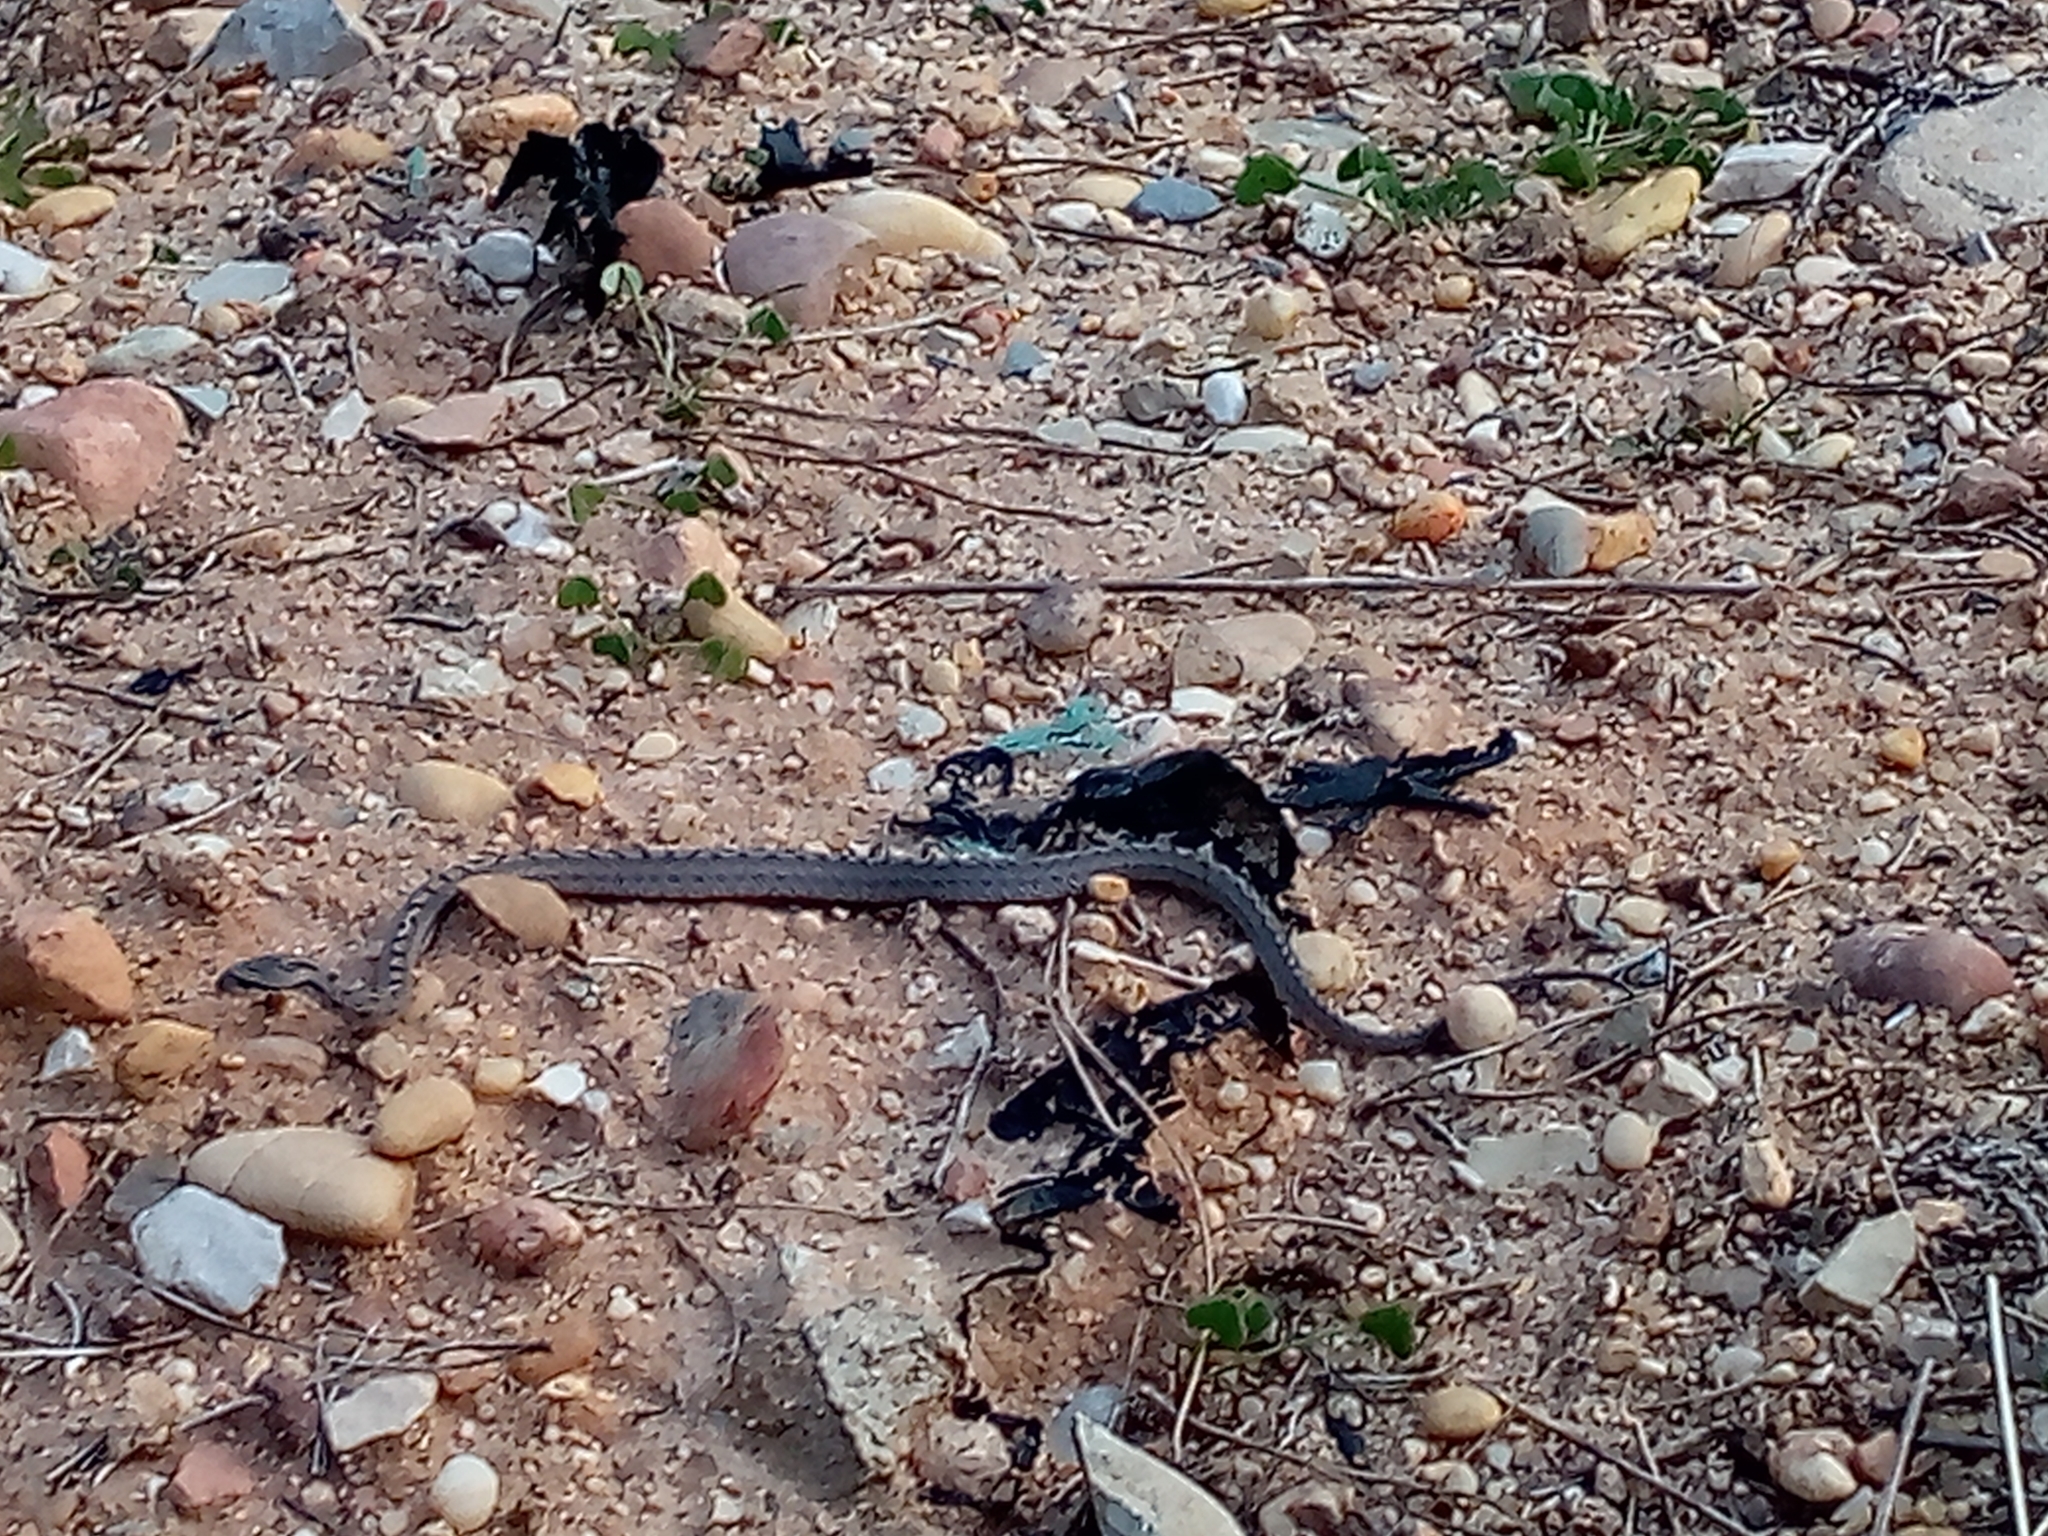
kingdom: Animalia
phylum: Chordata
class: Squamata
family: Colubridae
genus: Coronella
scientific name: Coronella girondica
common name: Southern smooth snake
